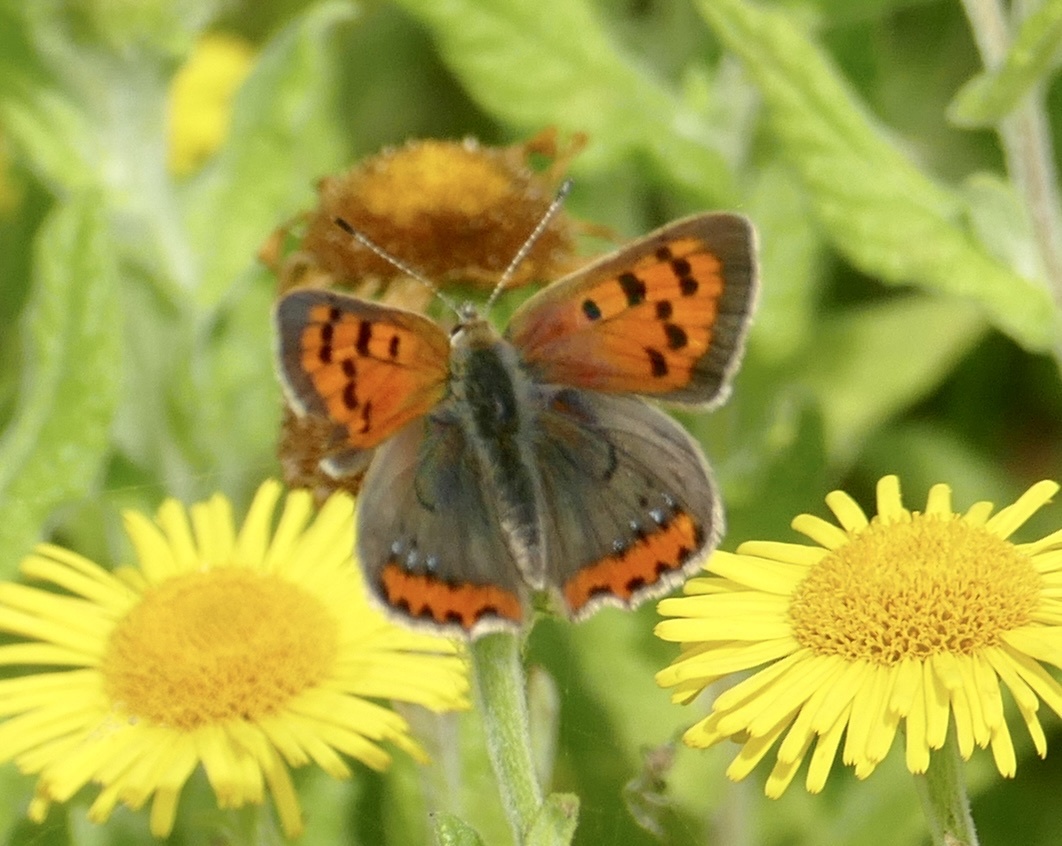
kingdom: Animalia
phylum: Arthropoda
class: Insecta
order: Lepidoptera
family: Lycaenidae
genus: Lycaena
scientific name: Lycaena phlaeas
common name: Small copper
